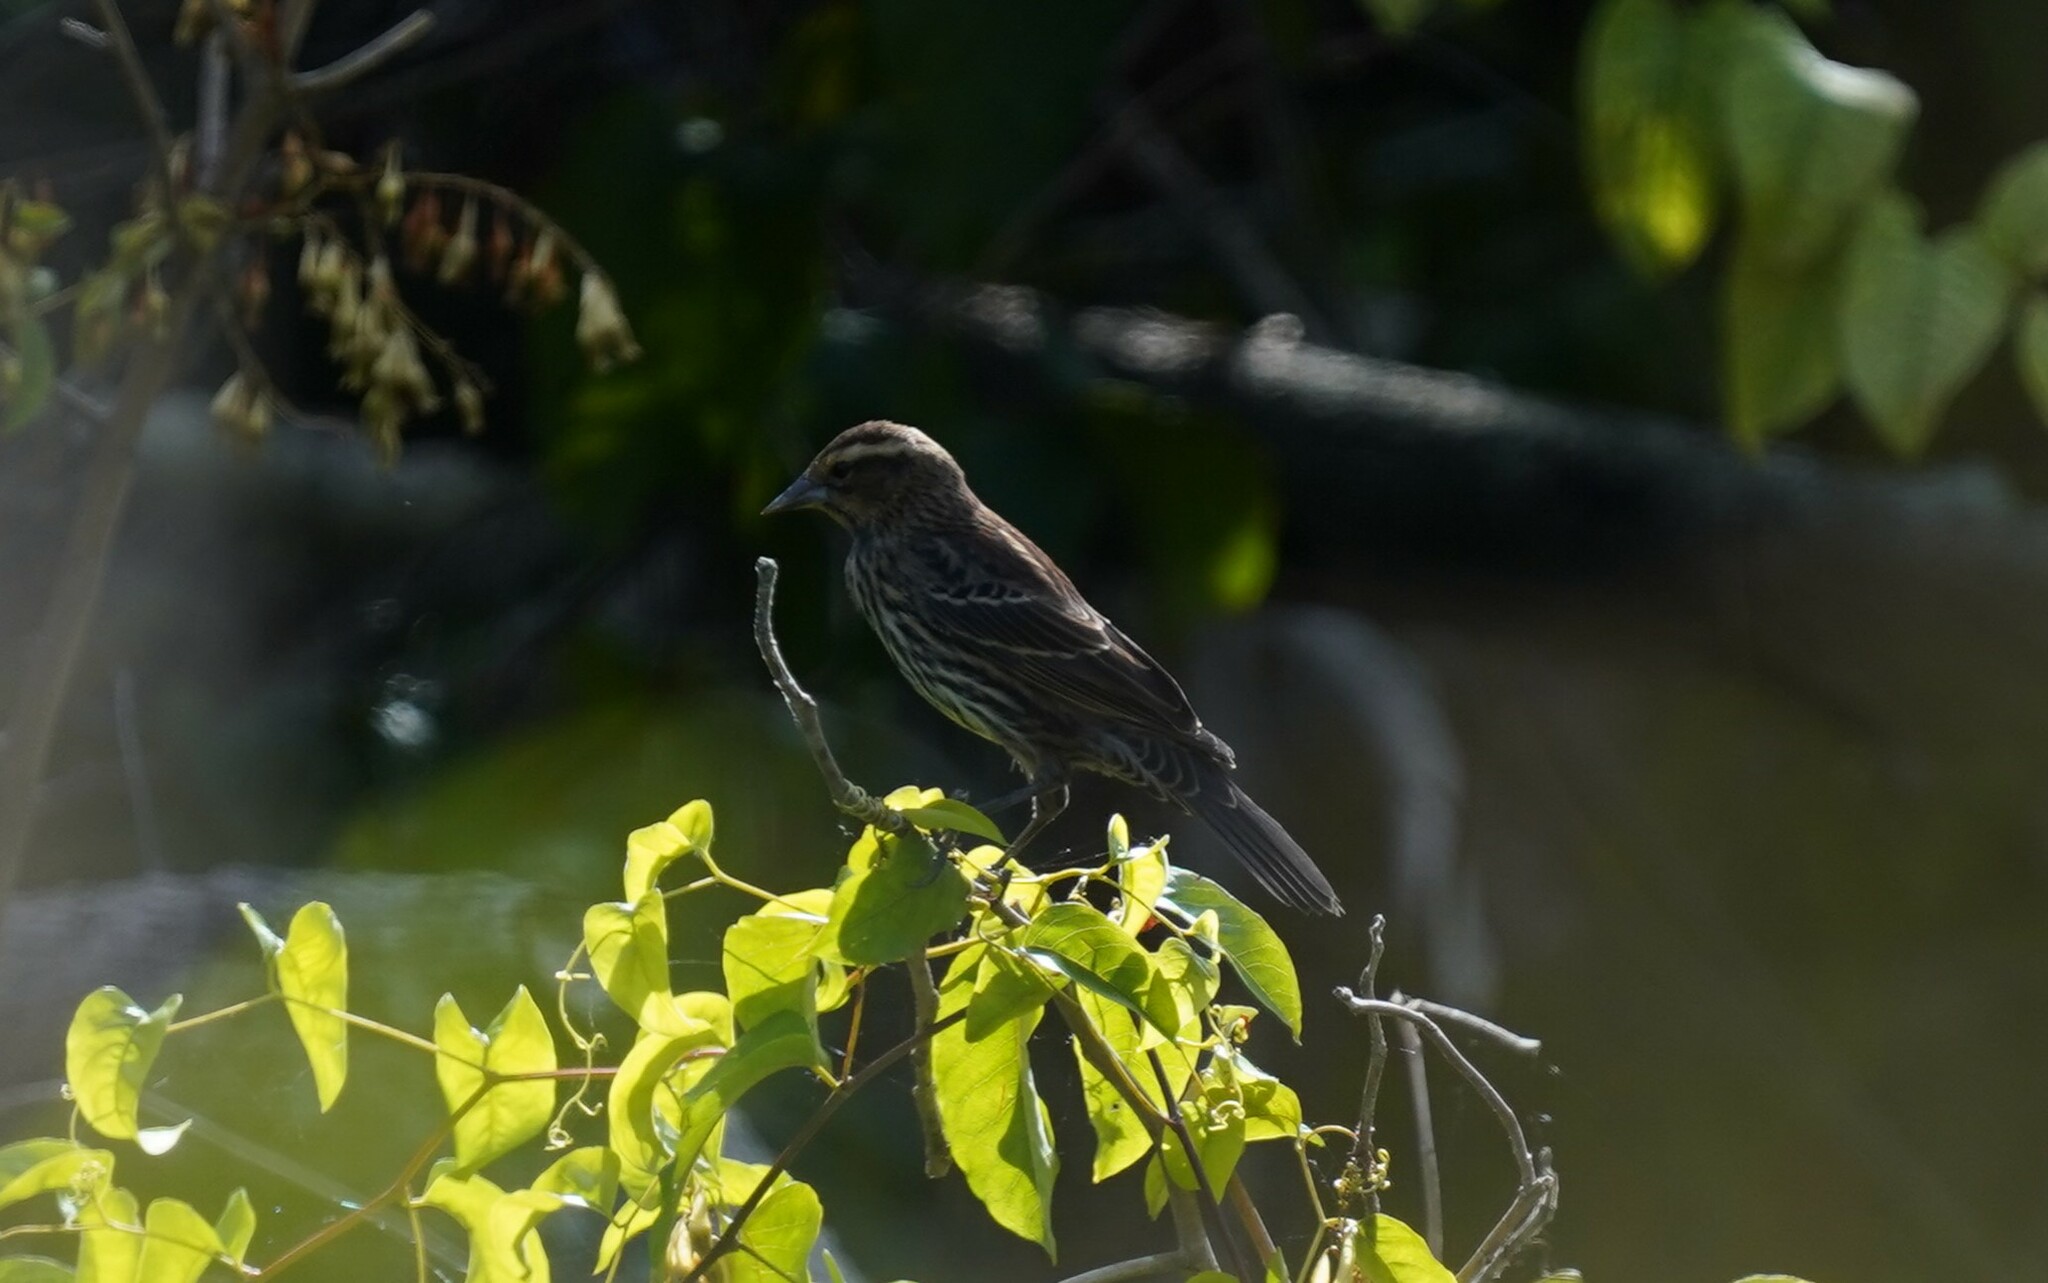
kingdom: Animalia
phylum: Chordata
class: Aves
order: Passeriformes
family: Icteridae
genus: Agelaius
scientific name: Agelaius phoeniceus
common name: Red-winged blackbird
